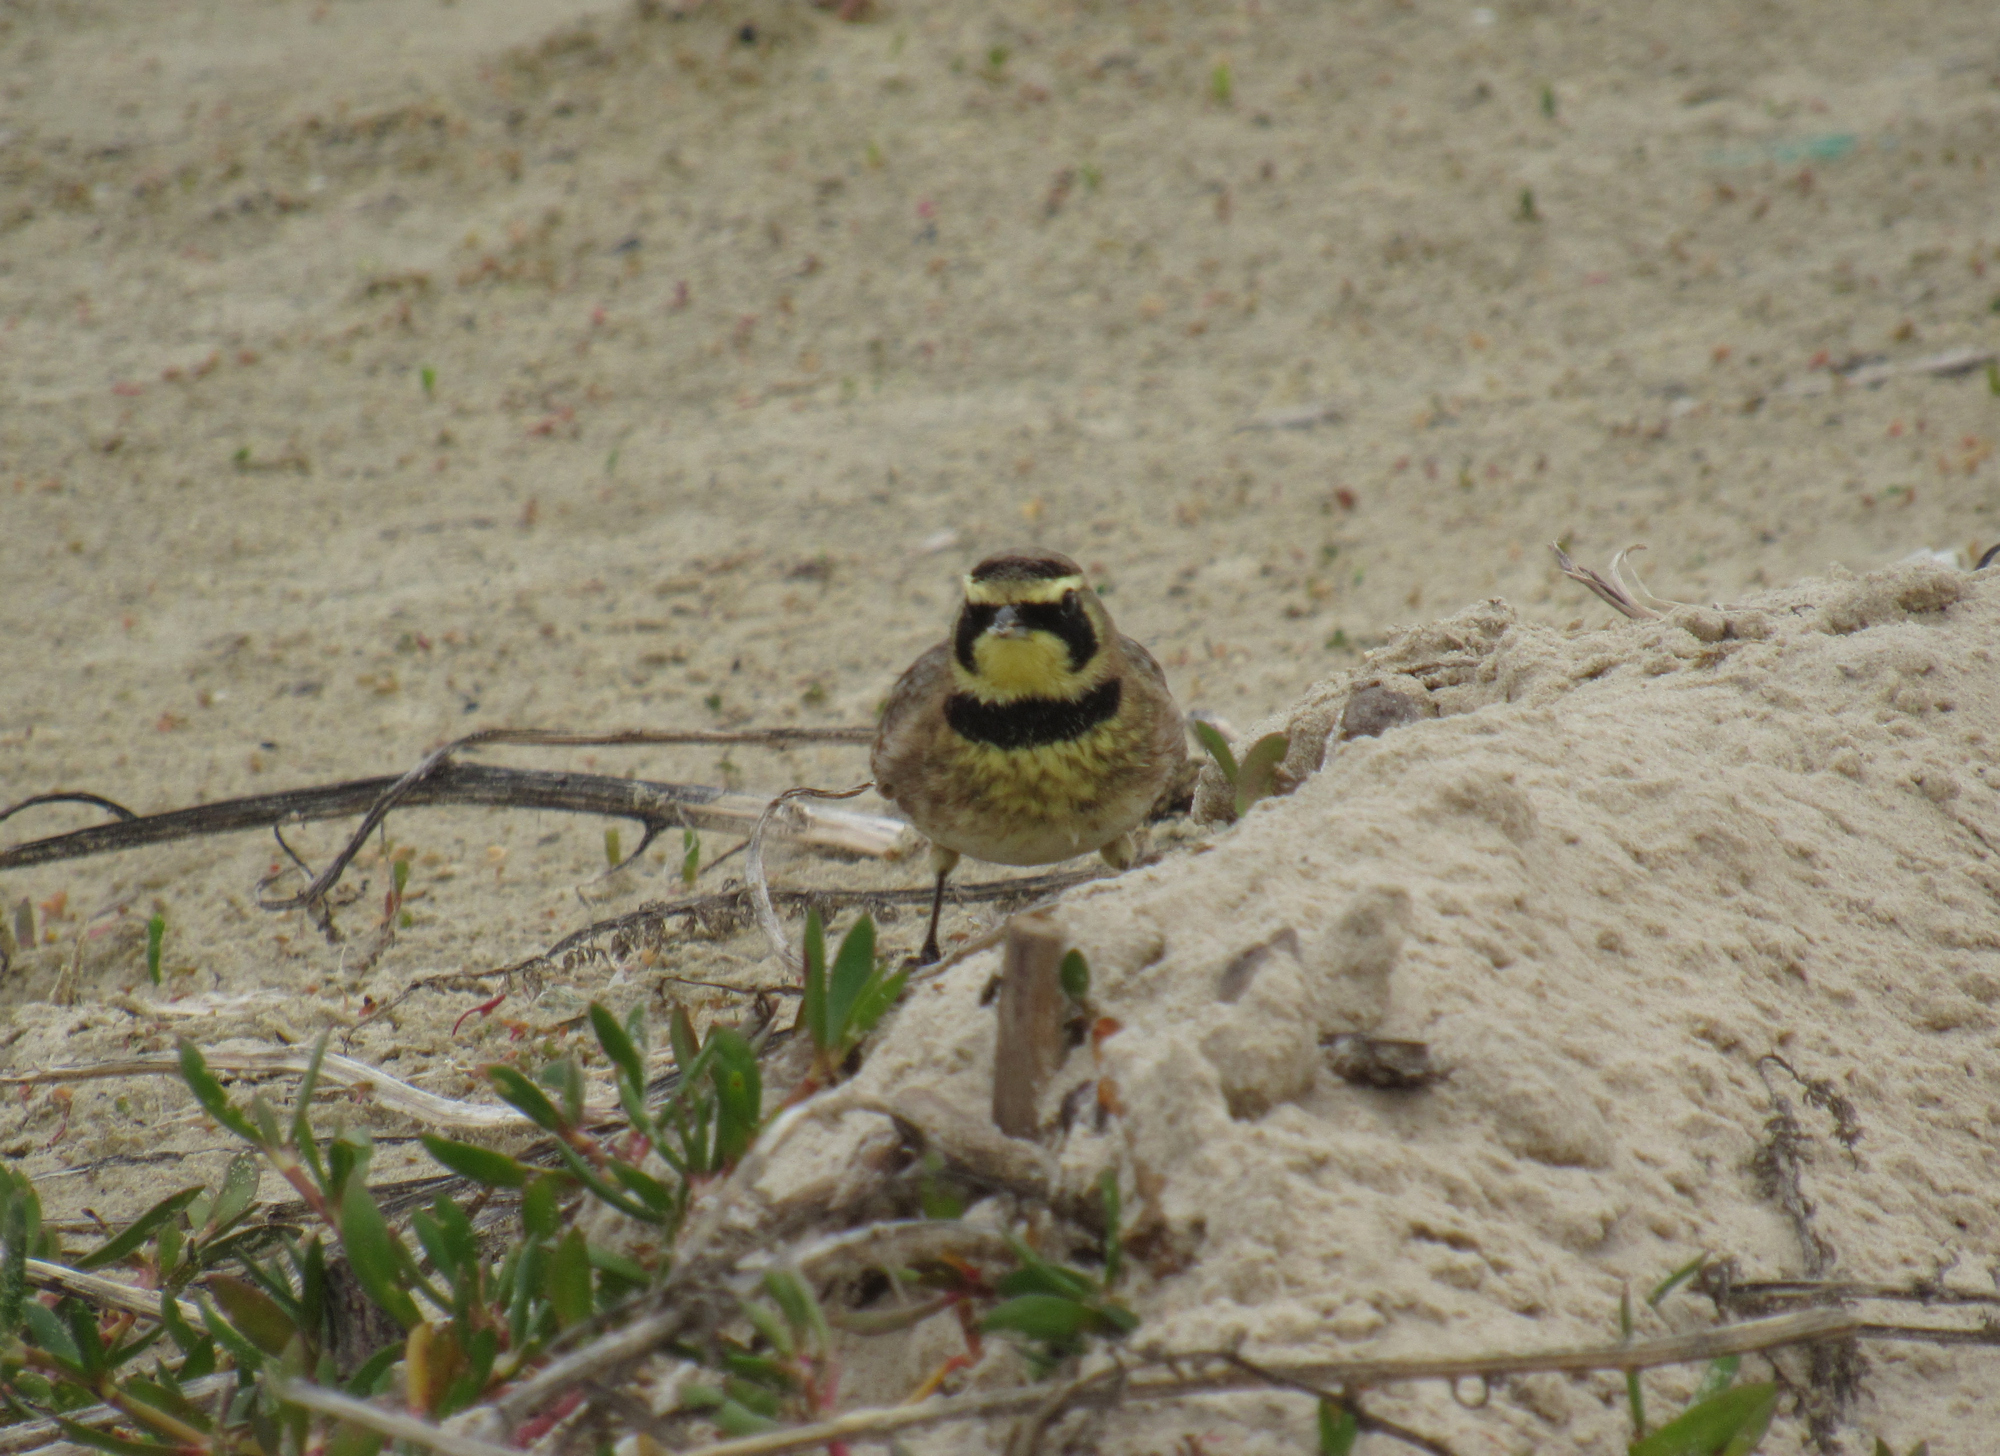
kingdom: Animalia
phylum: Chordata
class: Aves
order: Passeriformes
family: Alaudidae
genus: Eremophila
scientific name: Eremophila alpestris
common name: Horned lark
